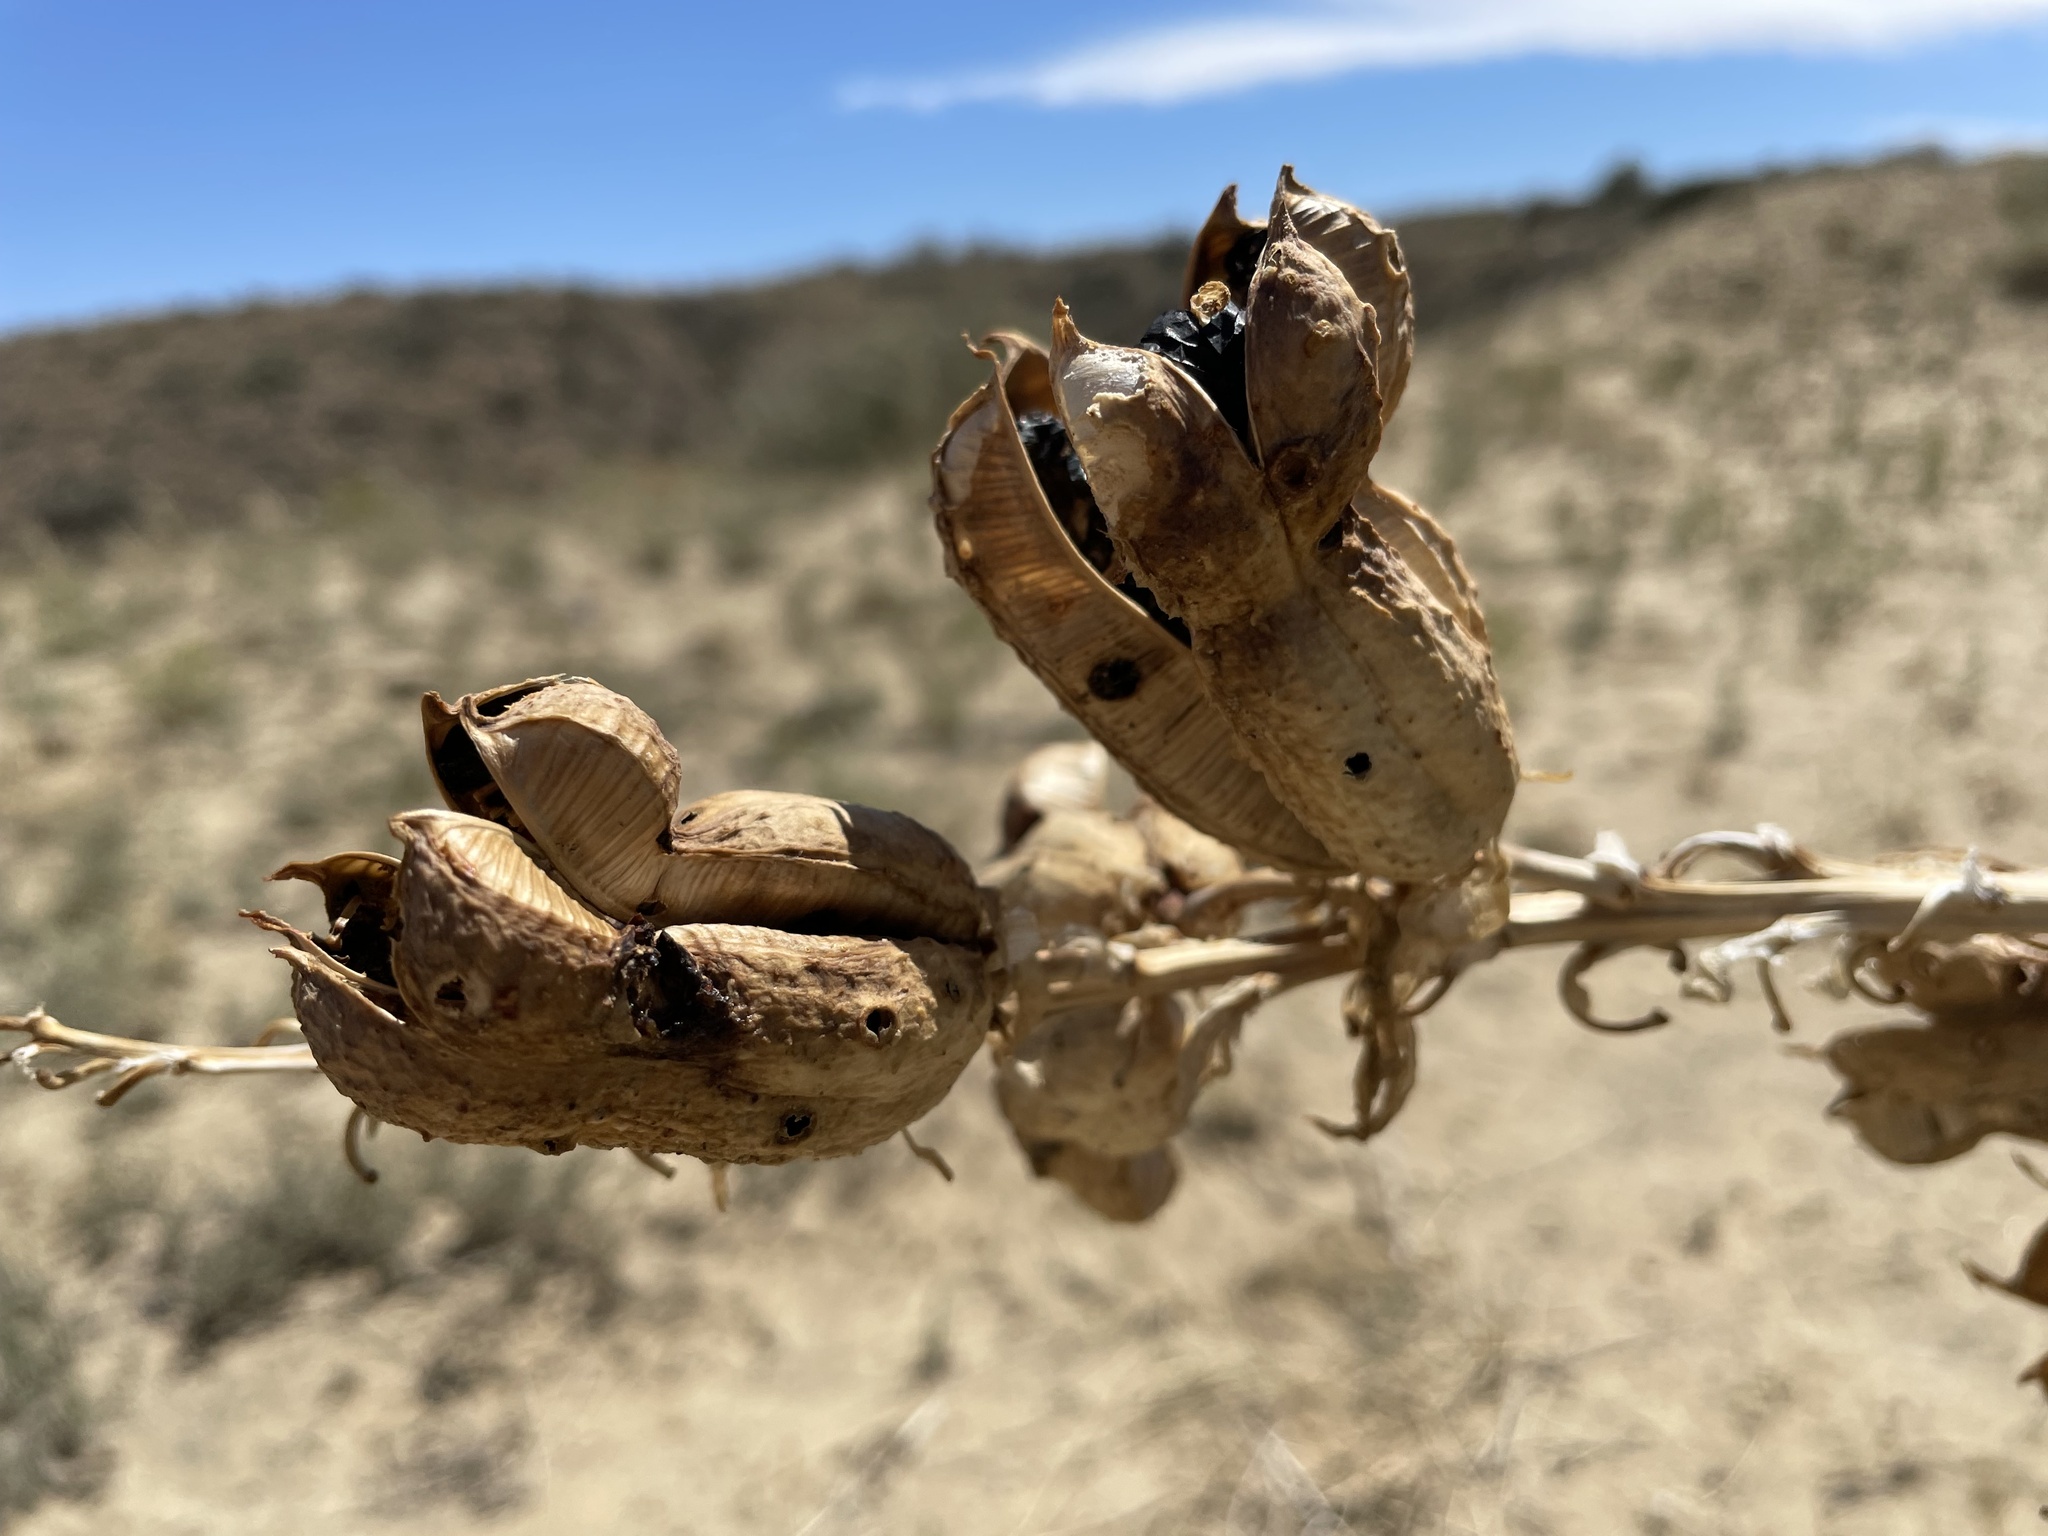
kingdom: Plantae
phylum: Tracheophyta
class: Liliopsida
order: Asparagales
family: Asparagaceae
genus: Yucca
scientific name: Yucca baileyi
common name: Alpine yucca
